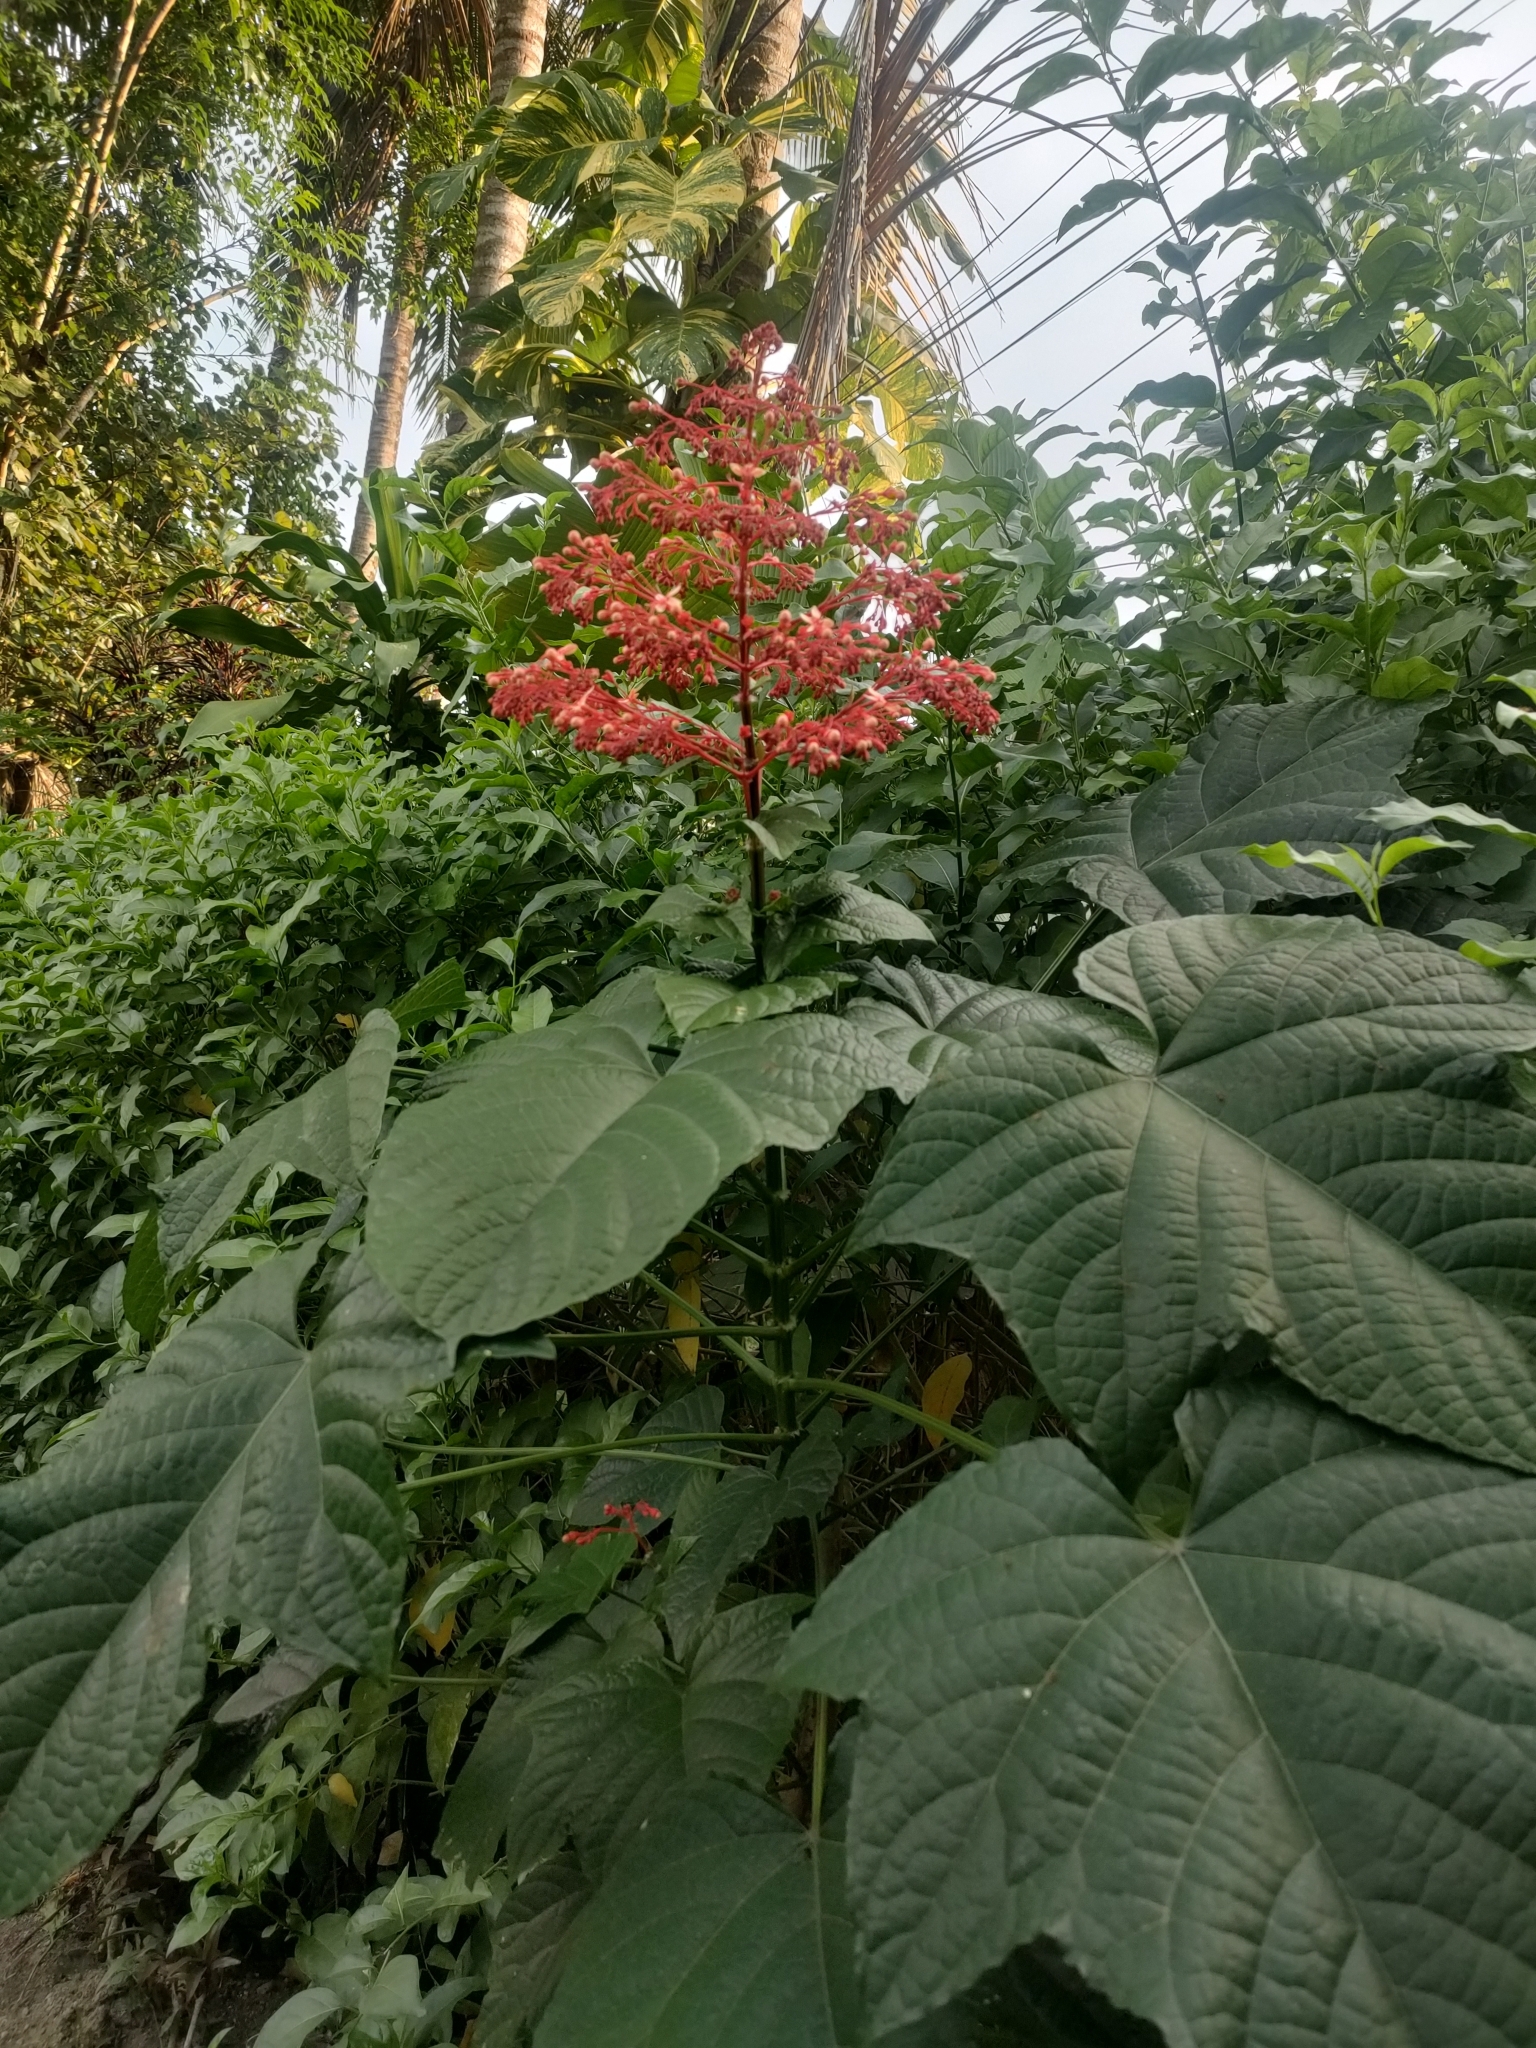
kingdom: Plantae
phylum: Tracheophyta
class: Magnoliopsida
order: Lamiales
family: Lamiaceae
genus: Clerodendrum
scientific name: Clerodendrum paniculatum
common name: Pagoda-flower
